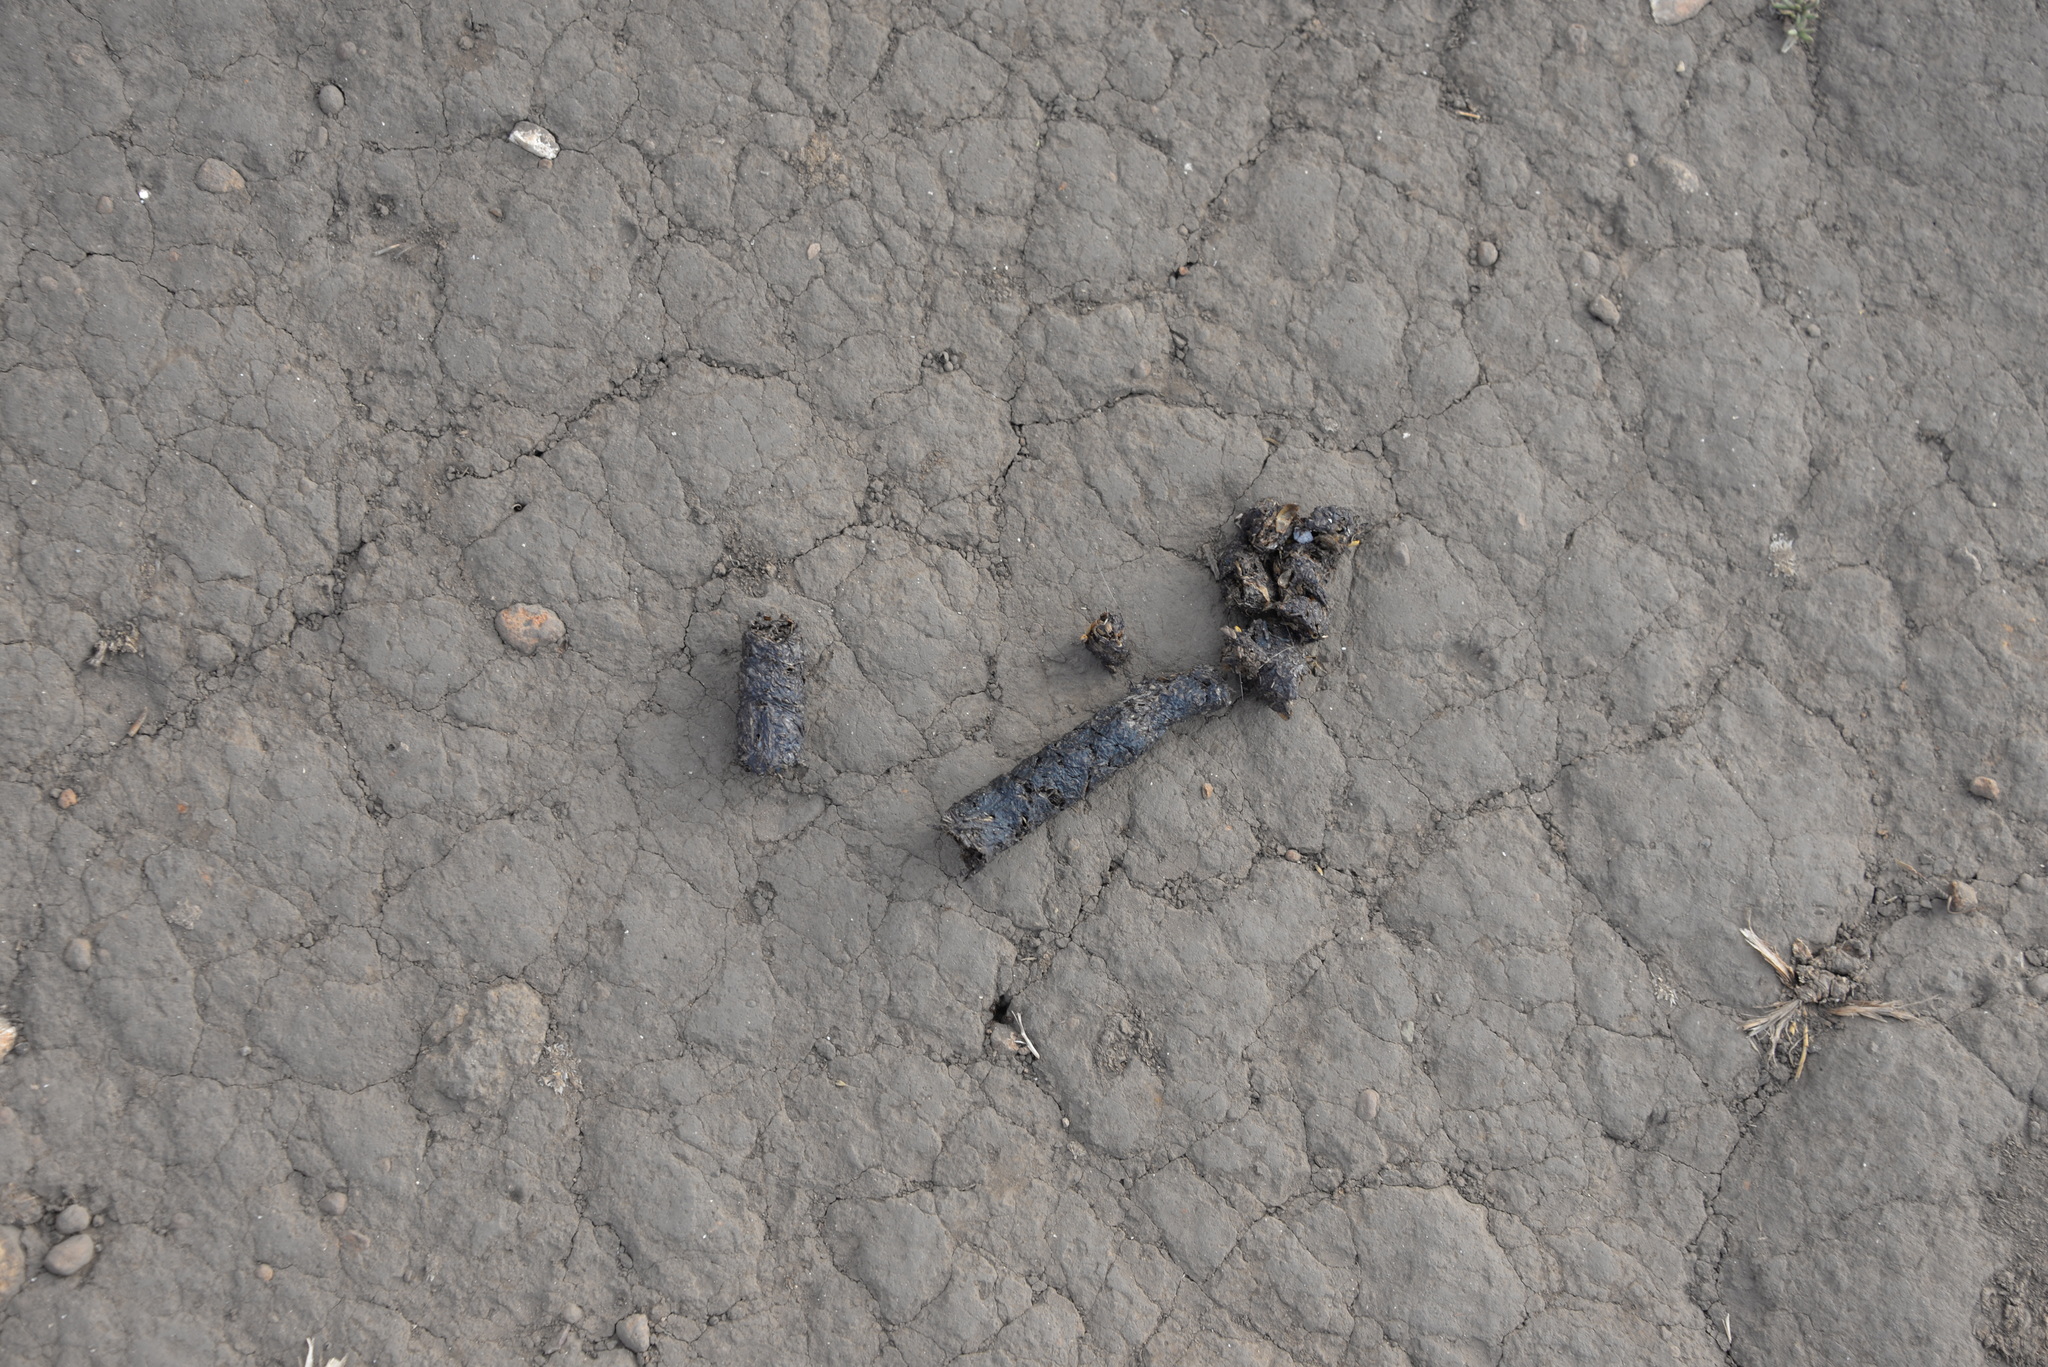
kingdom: Animalia
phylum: Chordata
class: Mammalia
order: Carnivora
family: Mephitidae
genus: Spilogale
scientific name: Spilogale gracilis
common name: Western spotted skunk
